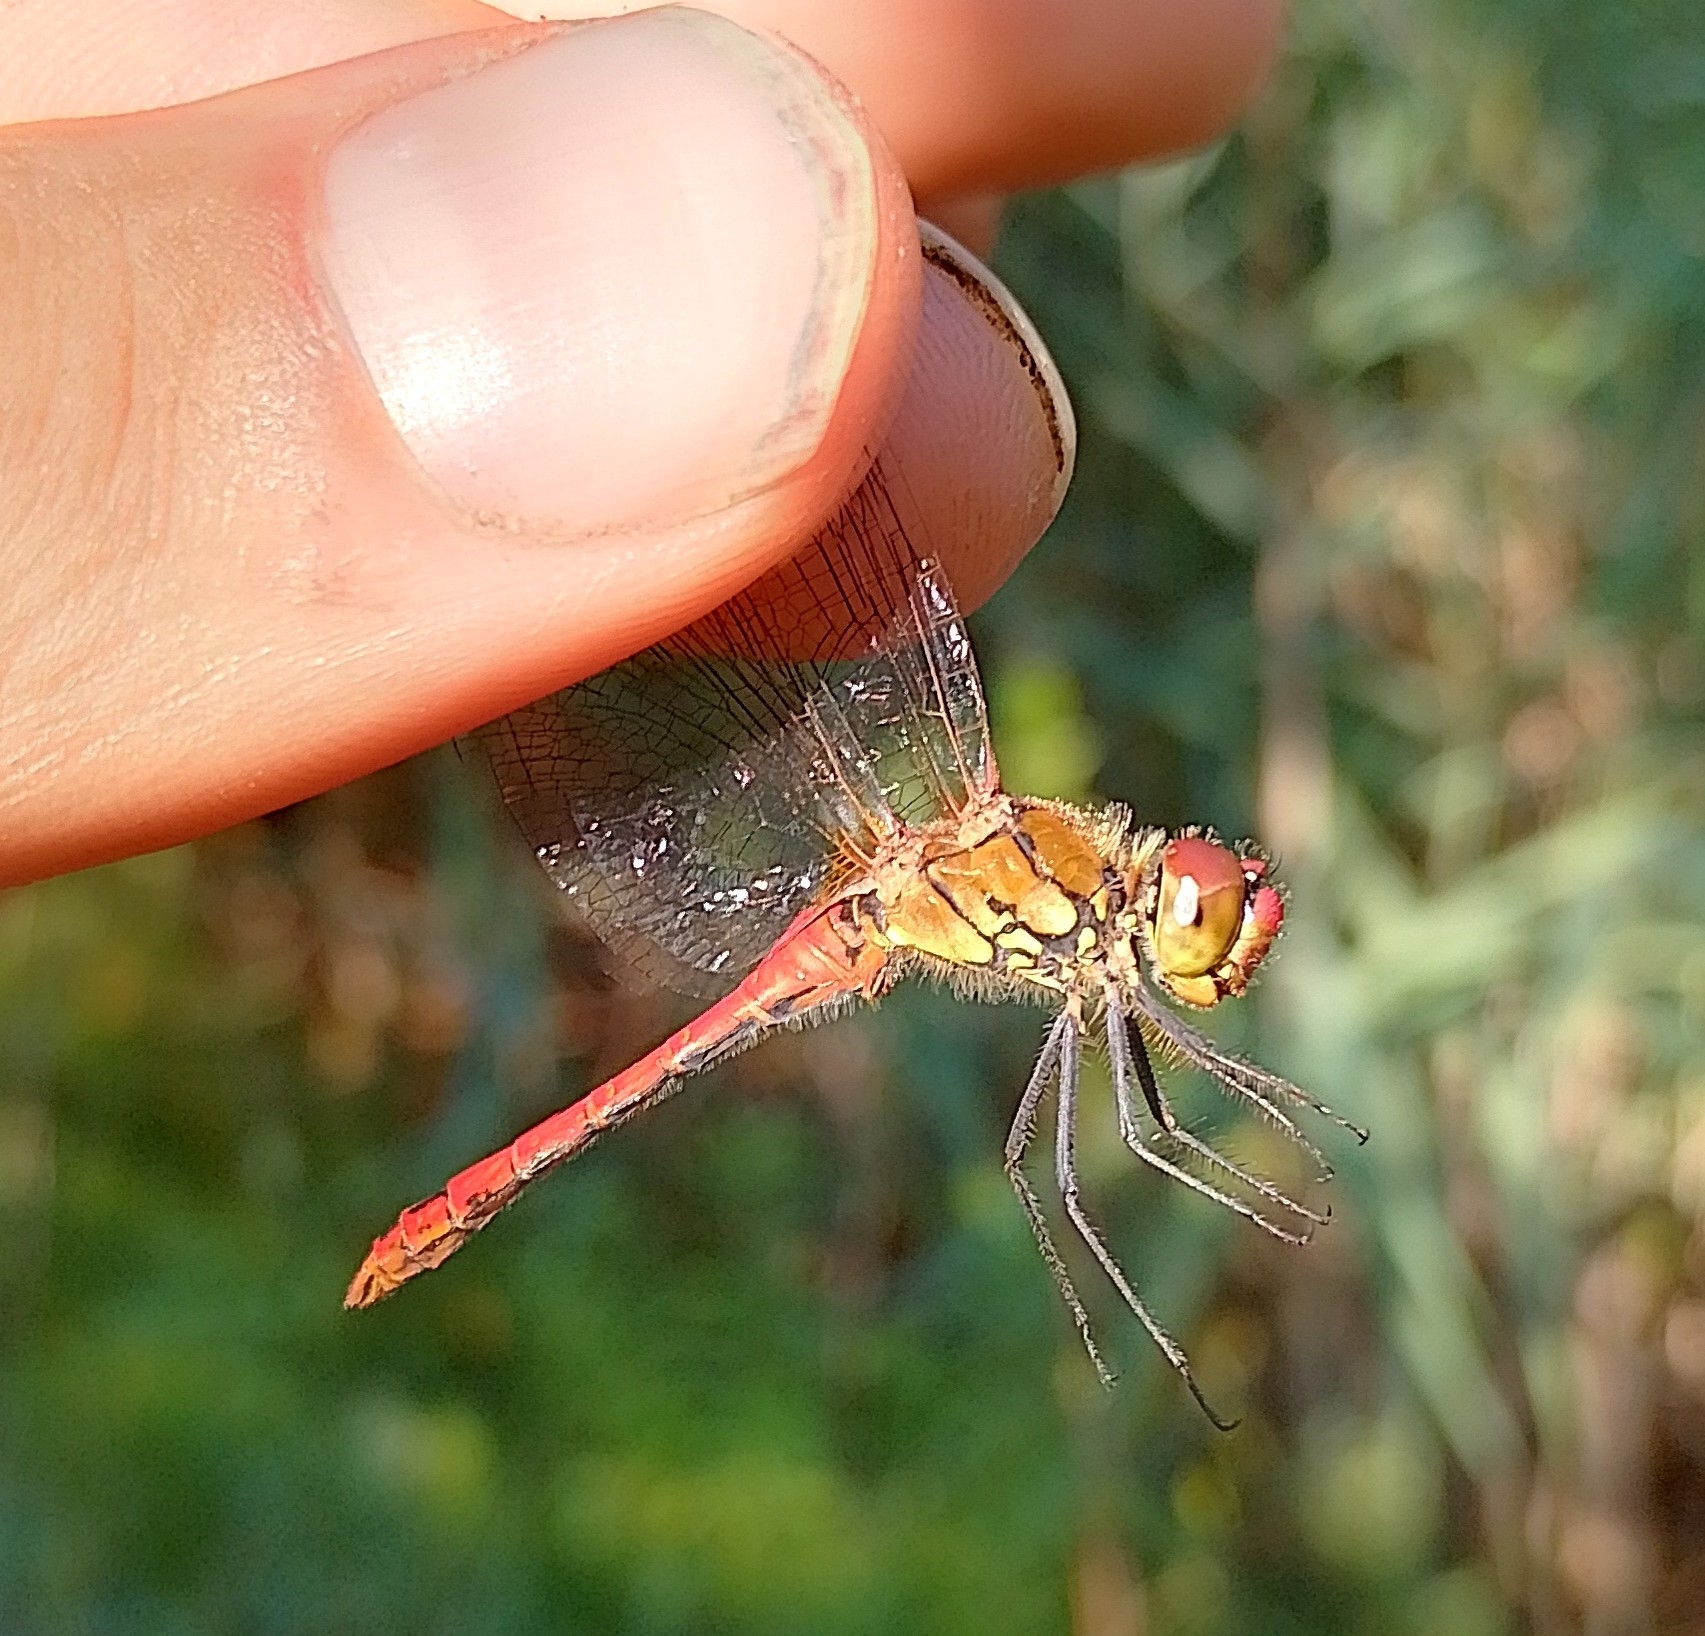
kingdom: Animalia
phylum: Arthropoda
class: Insecta
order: Odonata
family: Libellulidae
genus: Sympetrum
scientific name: Sympetrum sanguineum
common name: Ruddy darter
